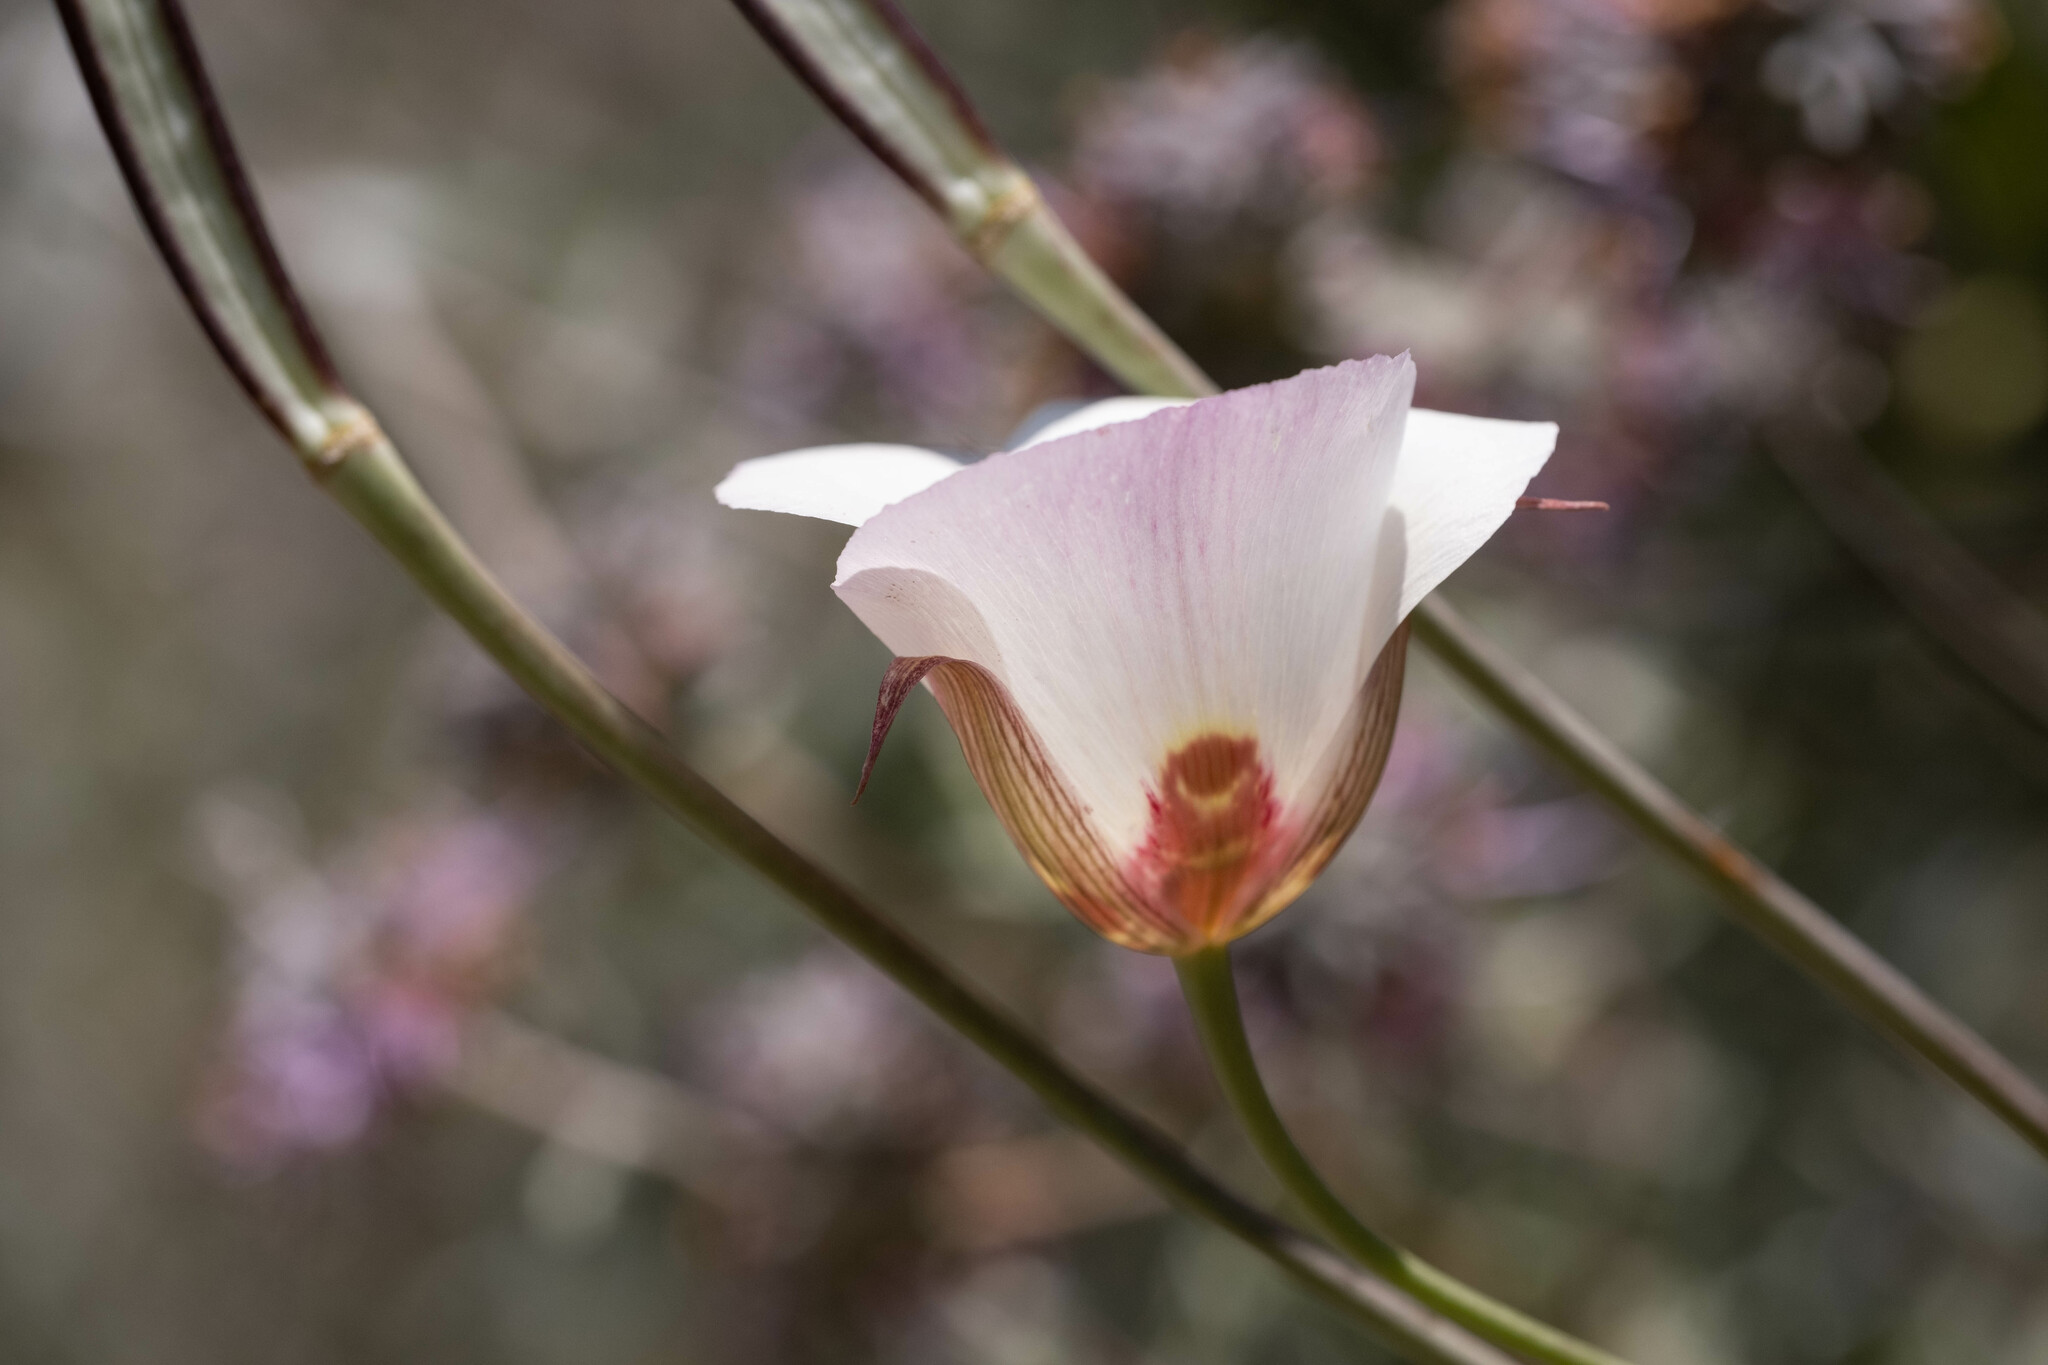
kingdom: Plantae
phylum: Tracheophyta
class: Liliopsida
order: Liliales
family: Liliaceae
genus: Calochortus
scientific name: Calochortus simulans
